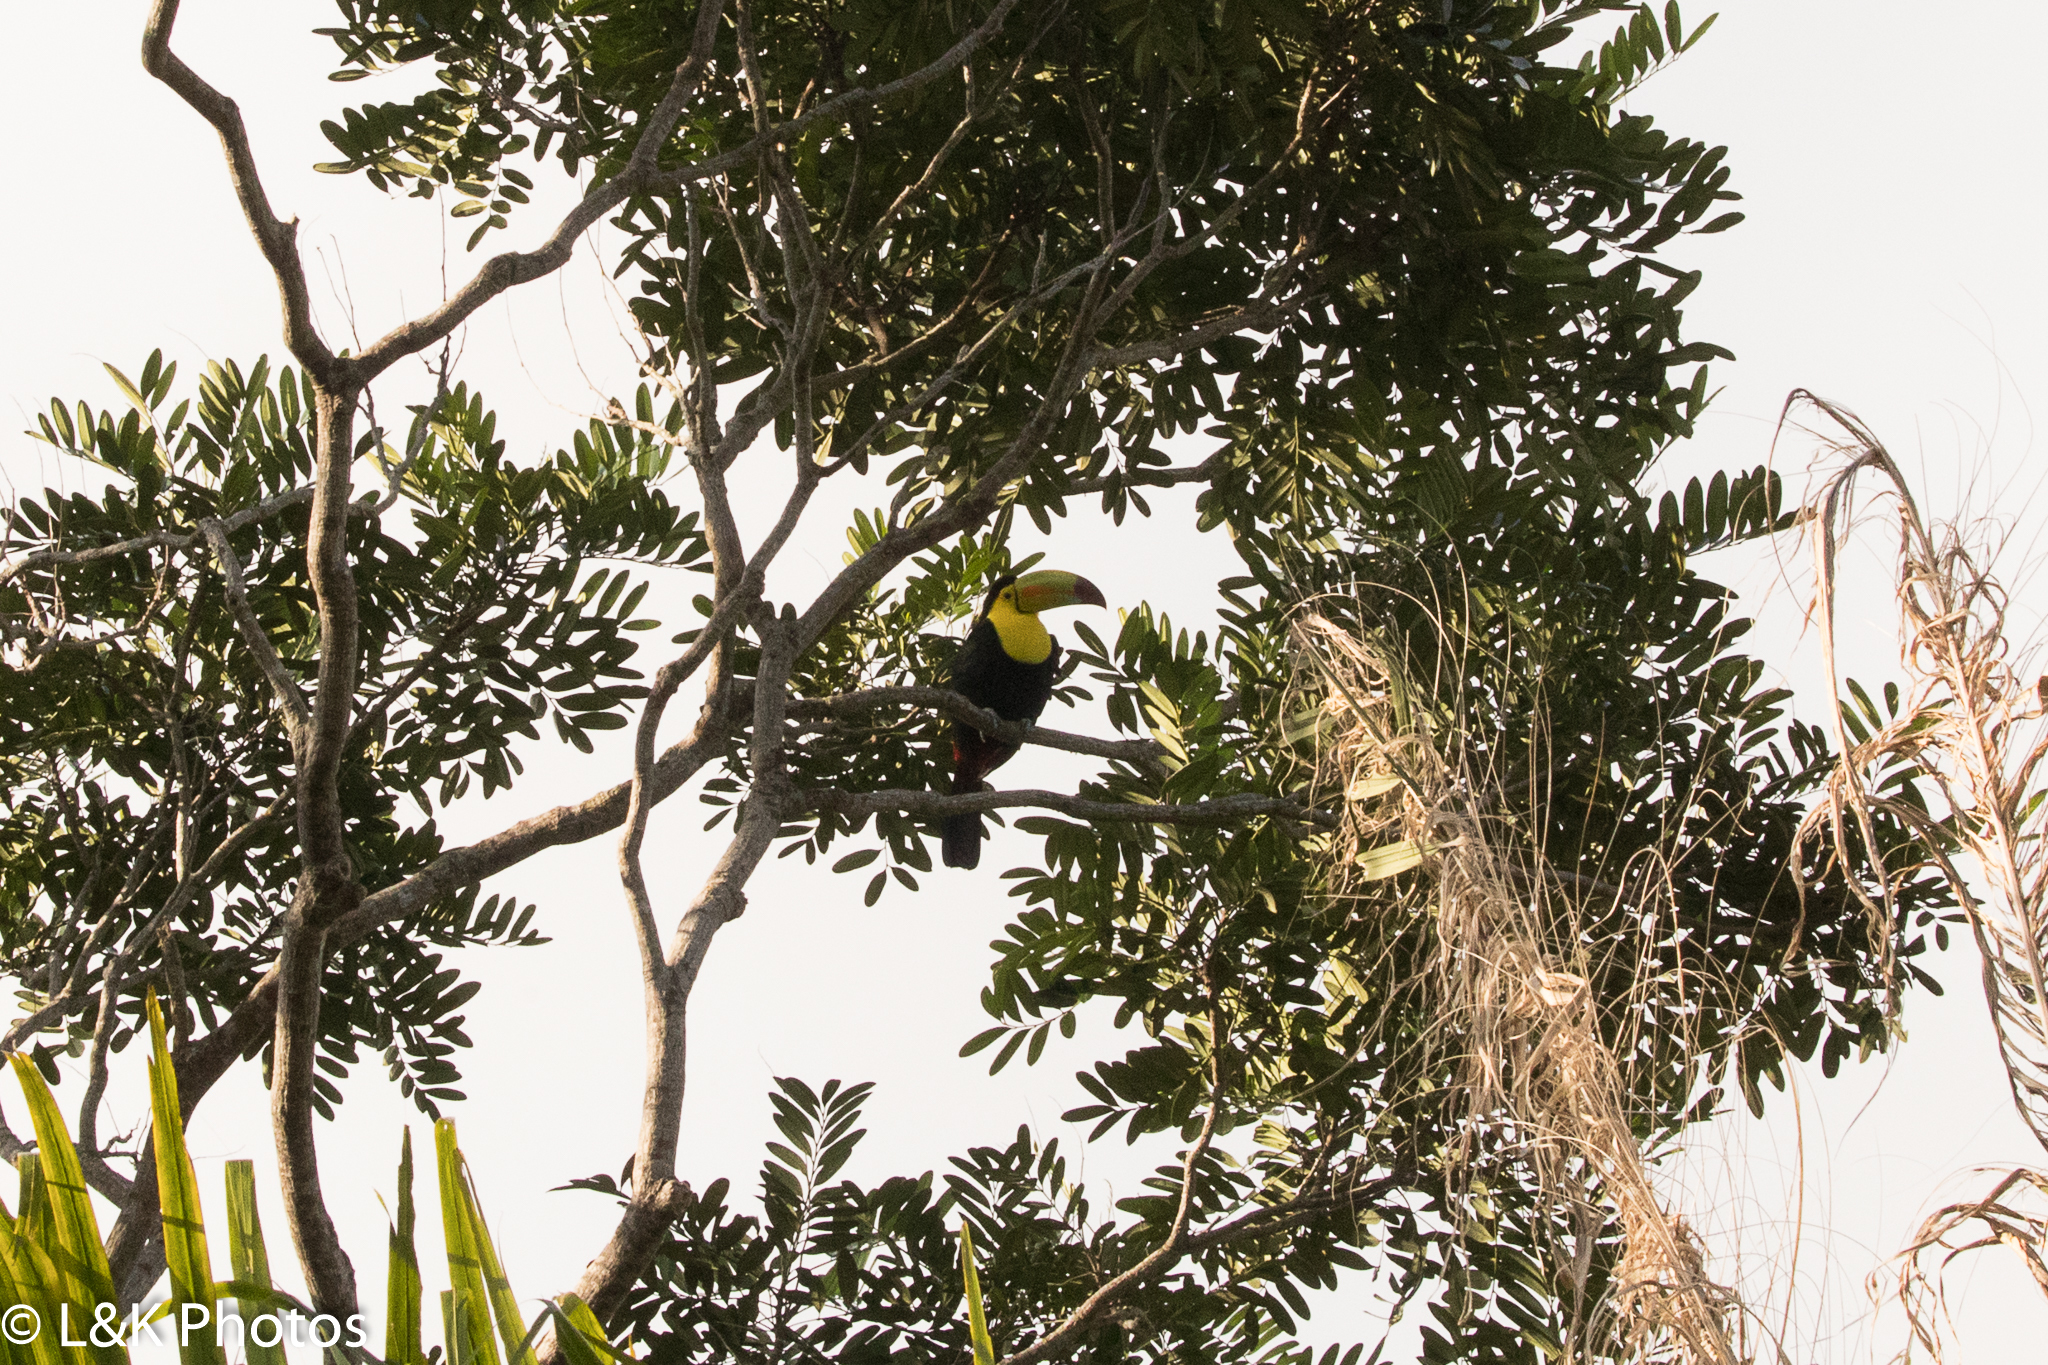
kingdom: Animalia
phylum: Chordata
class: Aves
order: Piciformes
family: Ramphastidae
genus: Ramphastos
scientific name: Ramphastos sulfuratus
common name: Keel-billed toucan
